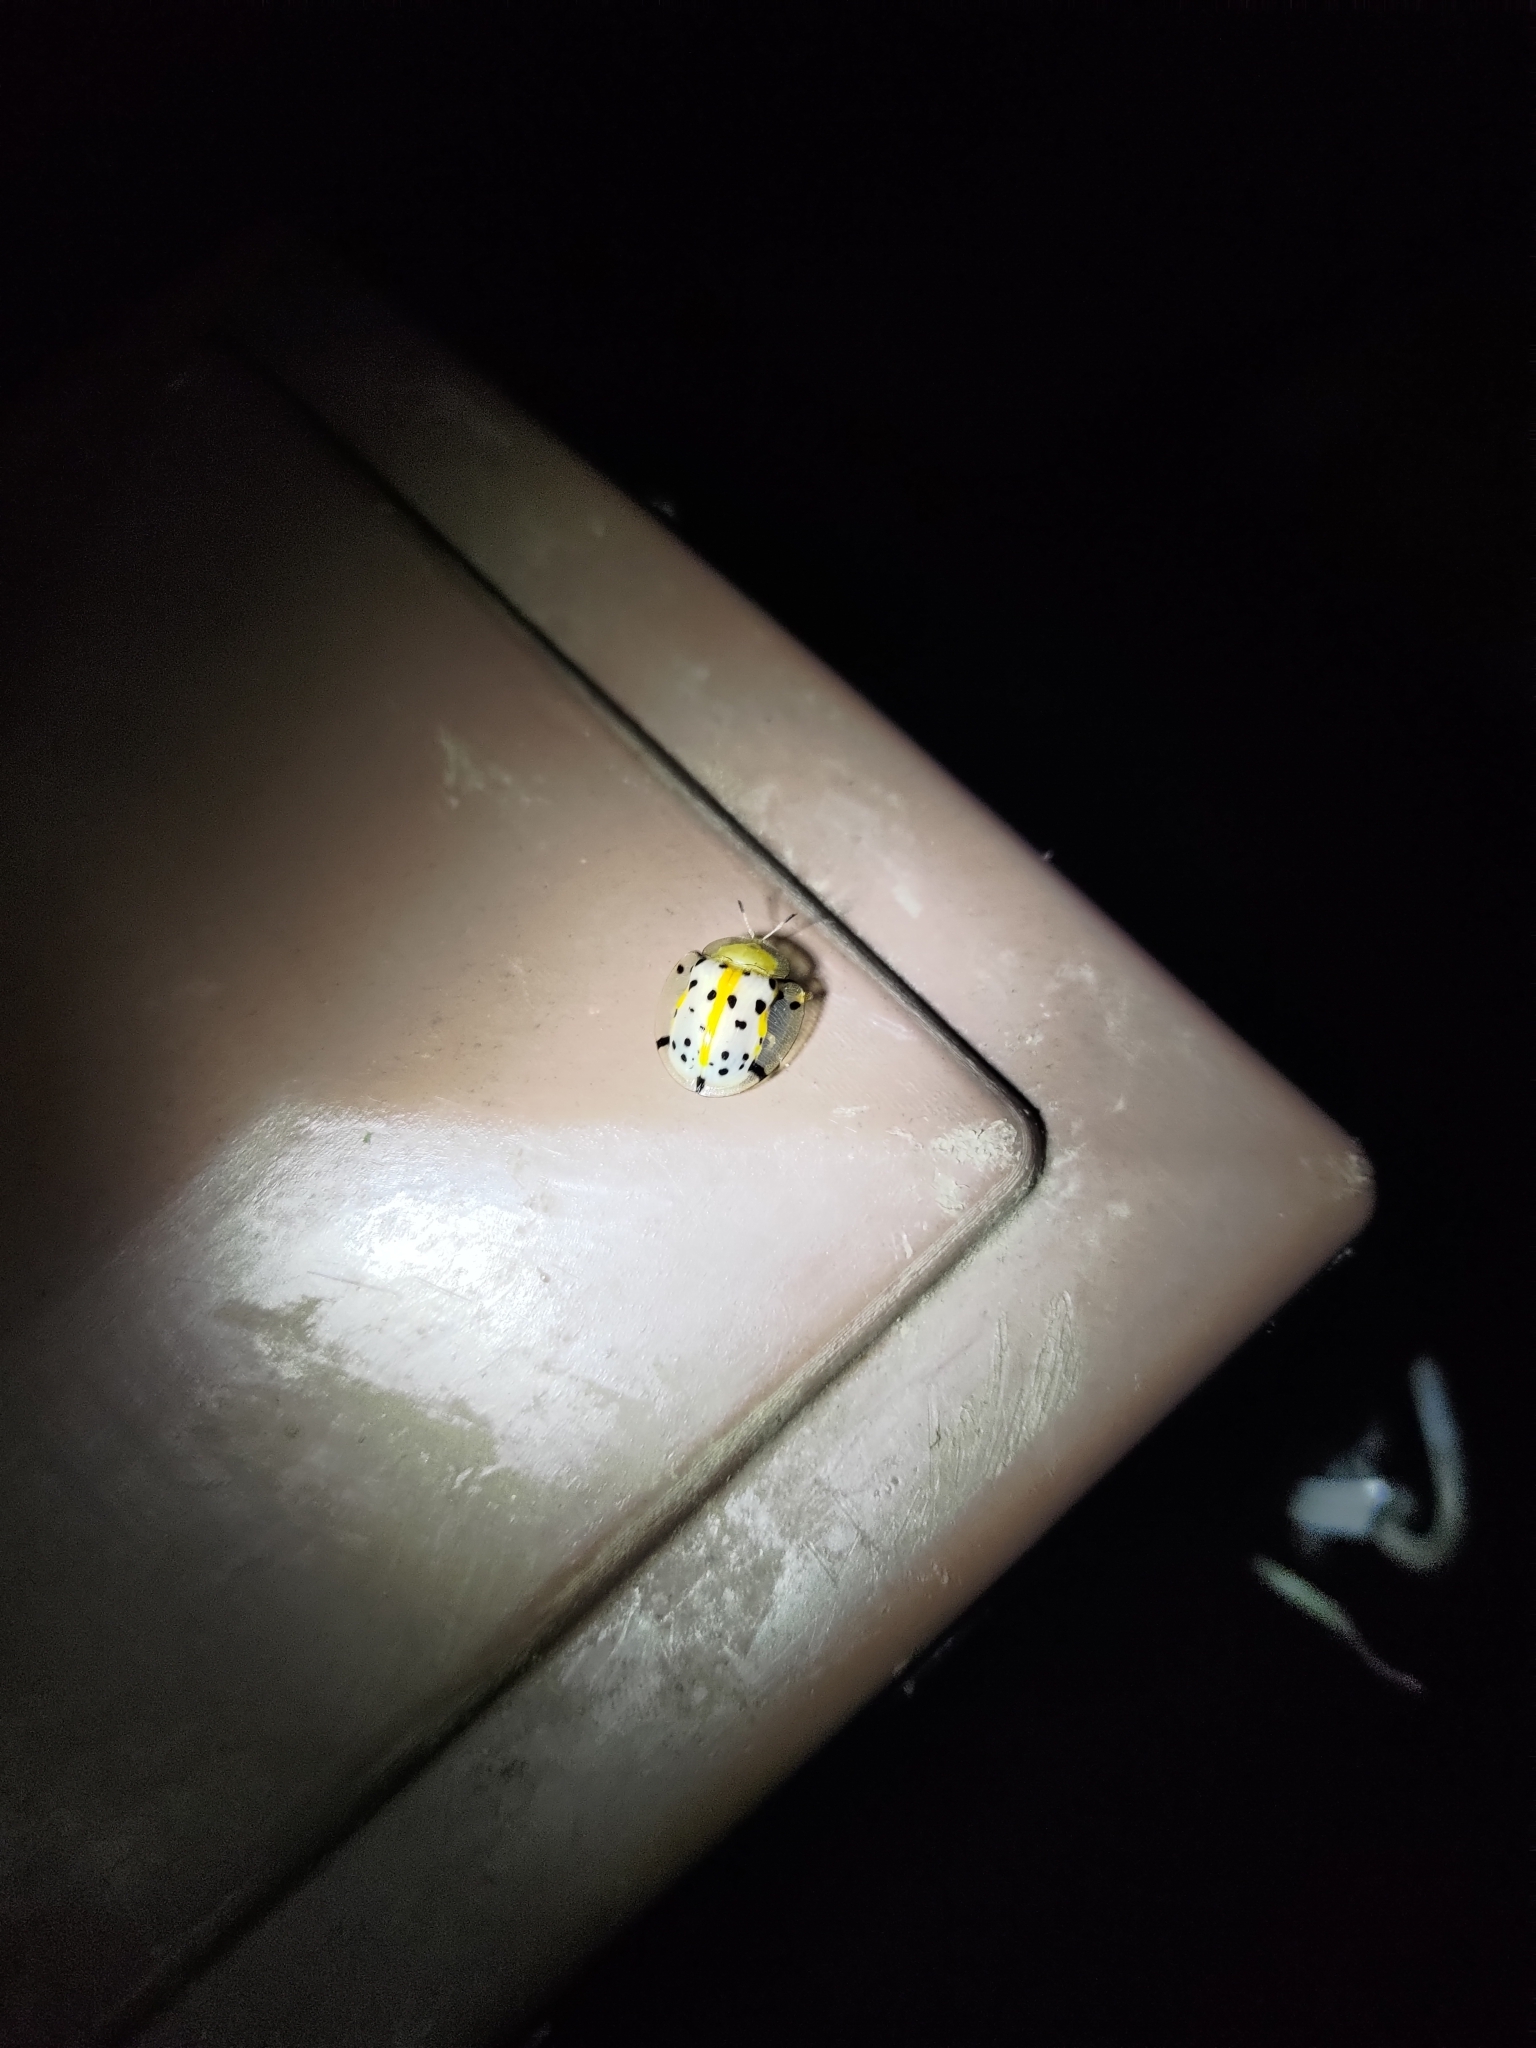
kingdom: Animalia
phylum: Arthropoda
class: Insecta
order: Coleoptera
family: Chrysomelidae
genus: Aspidimorpha
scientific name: Aspidimorpha miliaris
